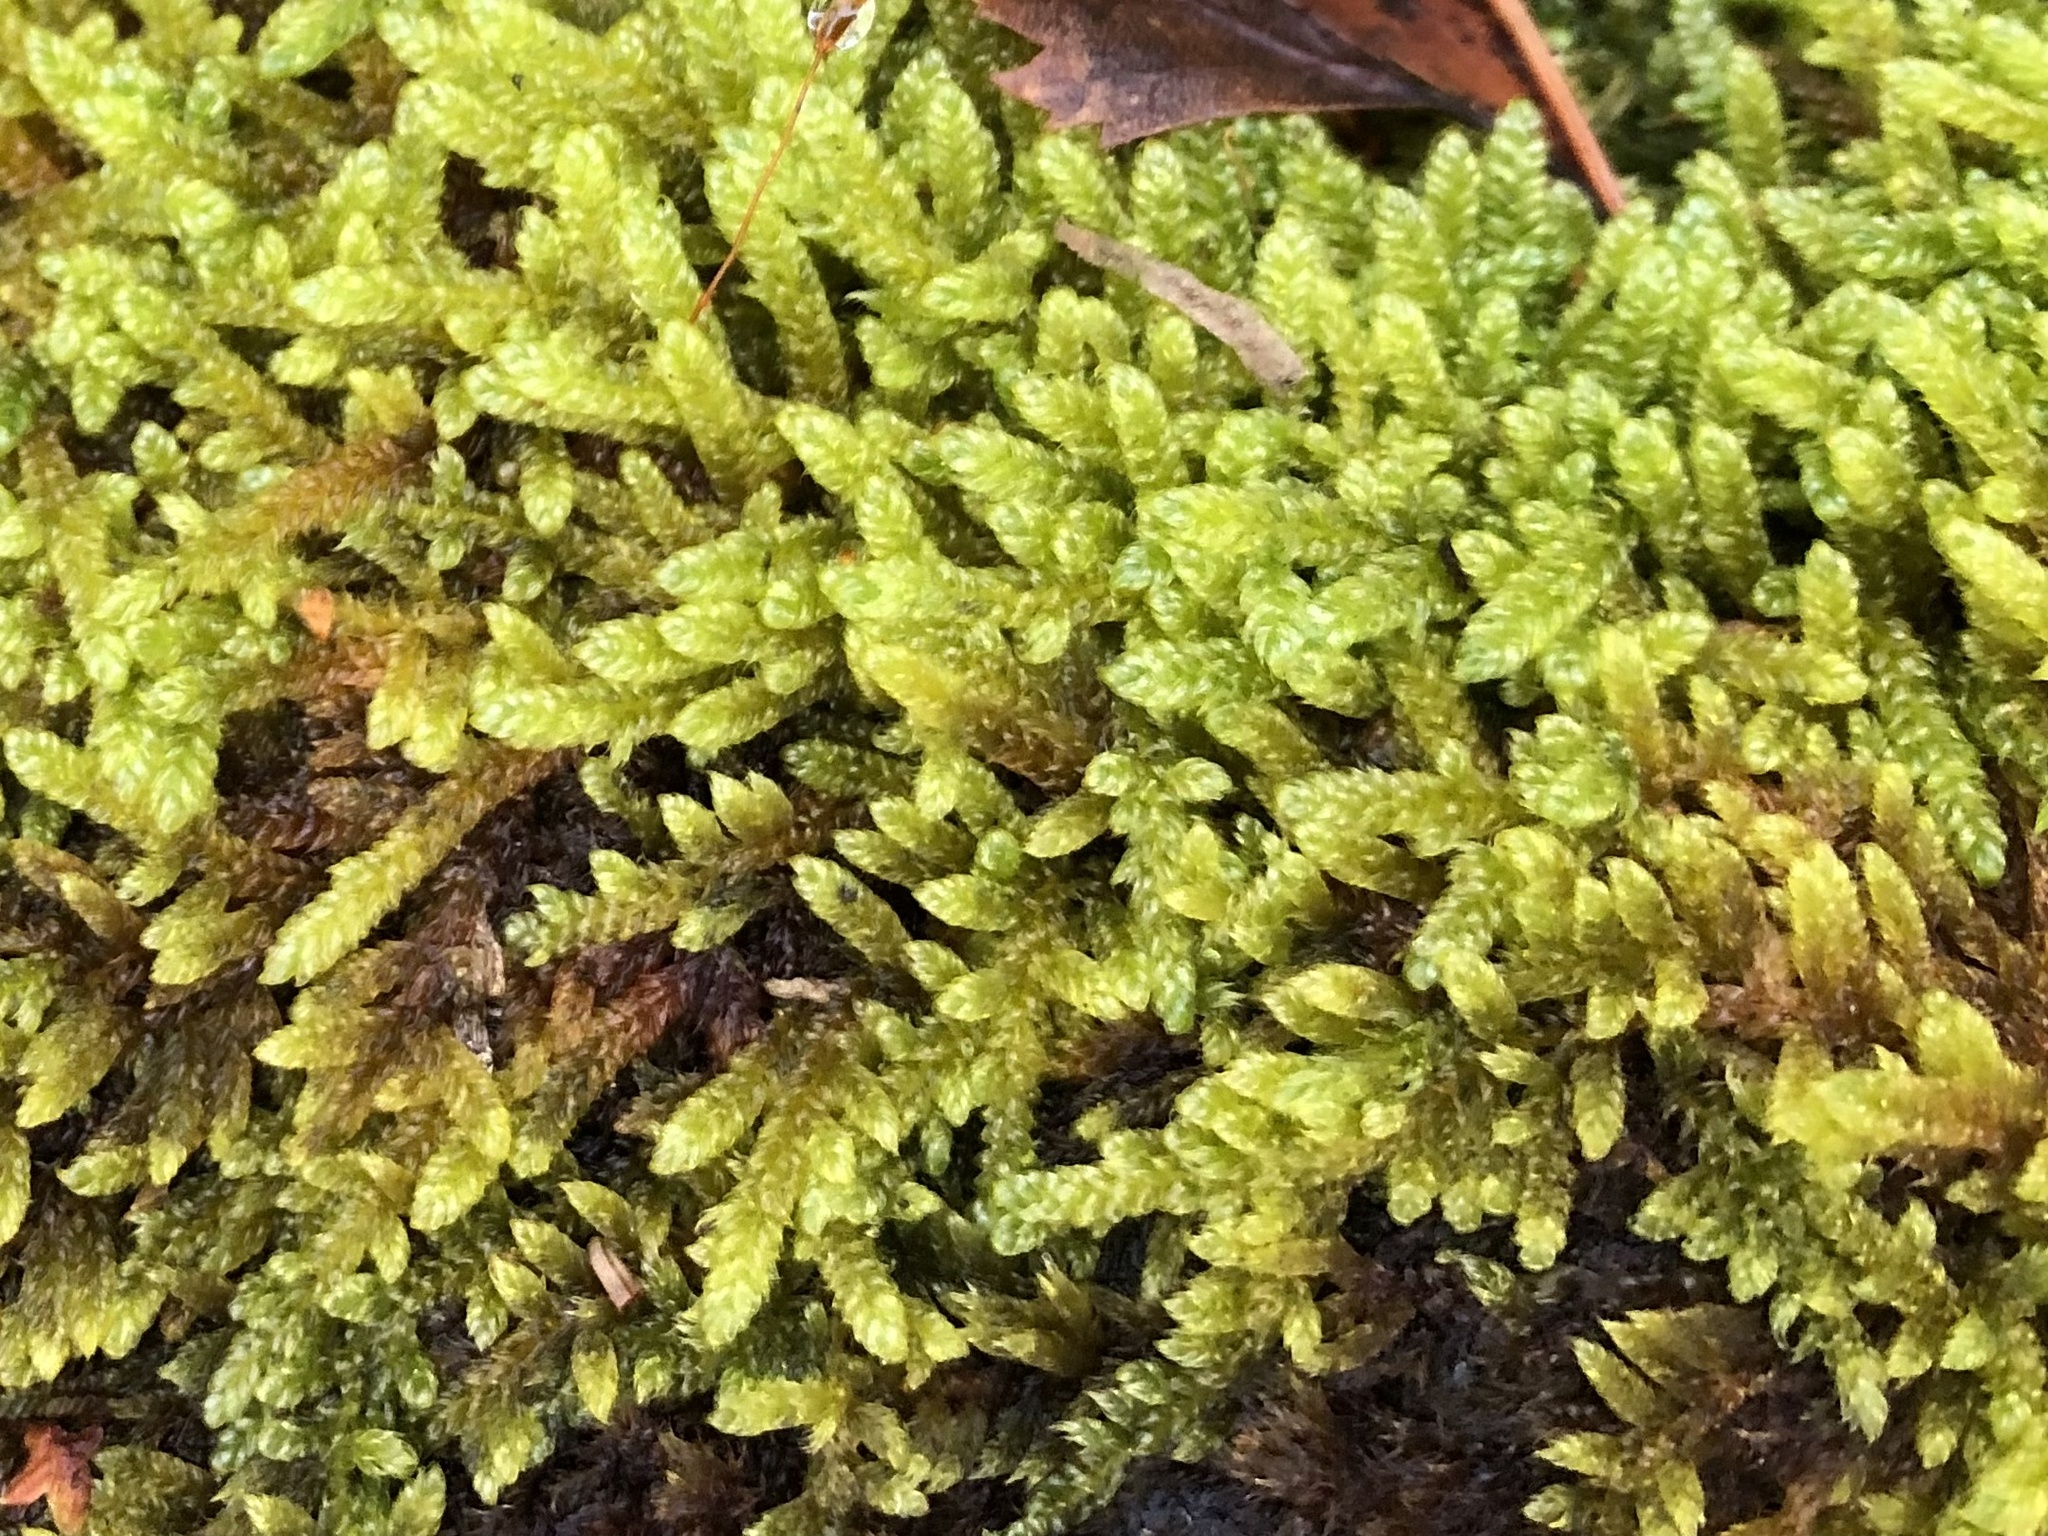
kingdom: Plantae
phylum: Bryophyta
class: Bryopsida
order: Hypnales
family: Hypnaceae
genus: Hypnum
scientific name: Hypnum cupressiforme
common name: Cypress-leaved plait-moss
